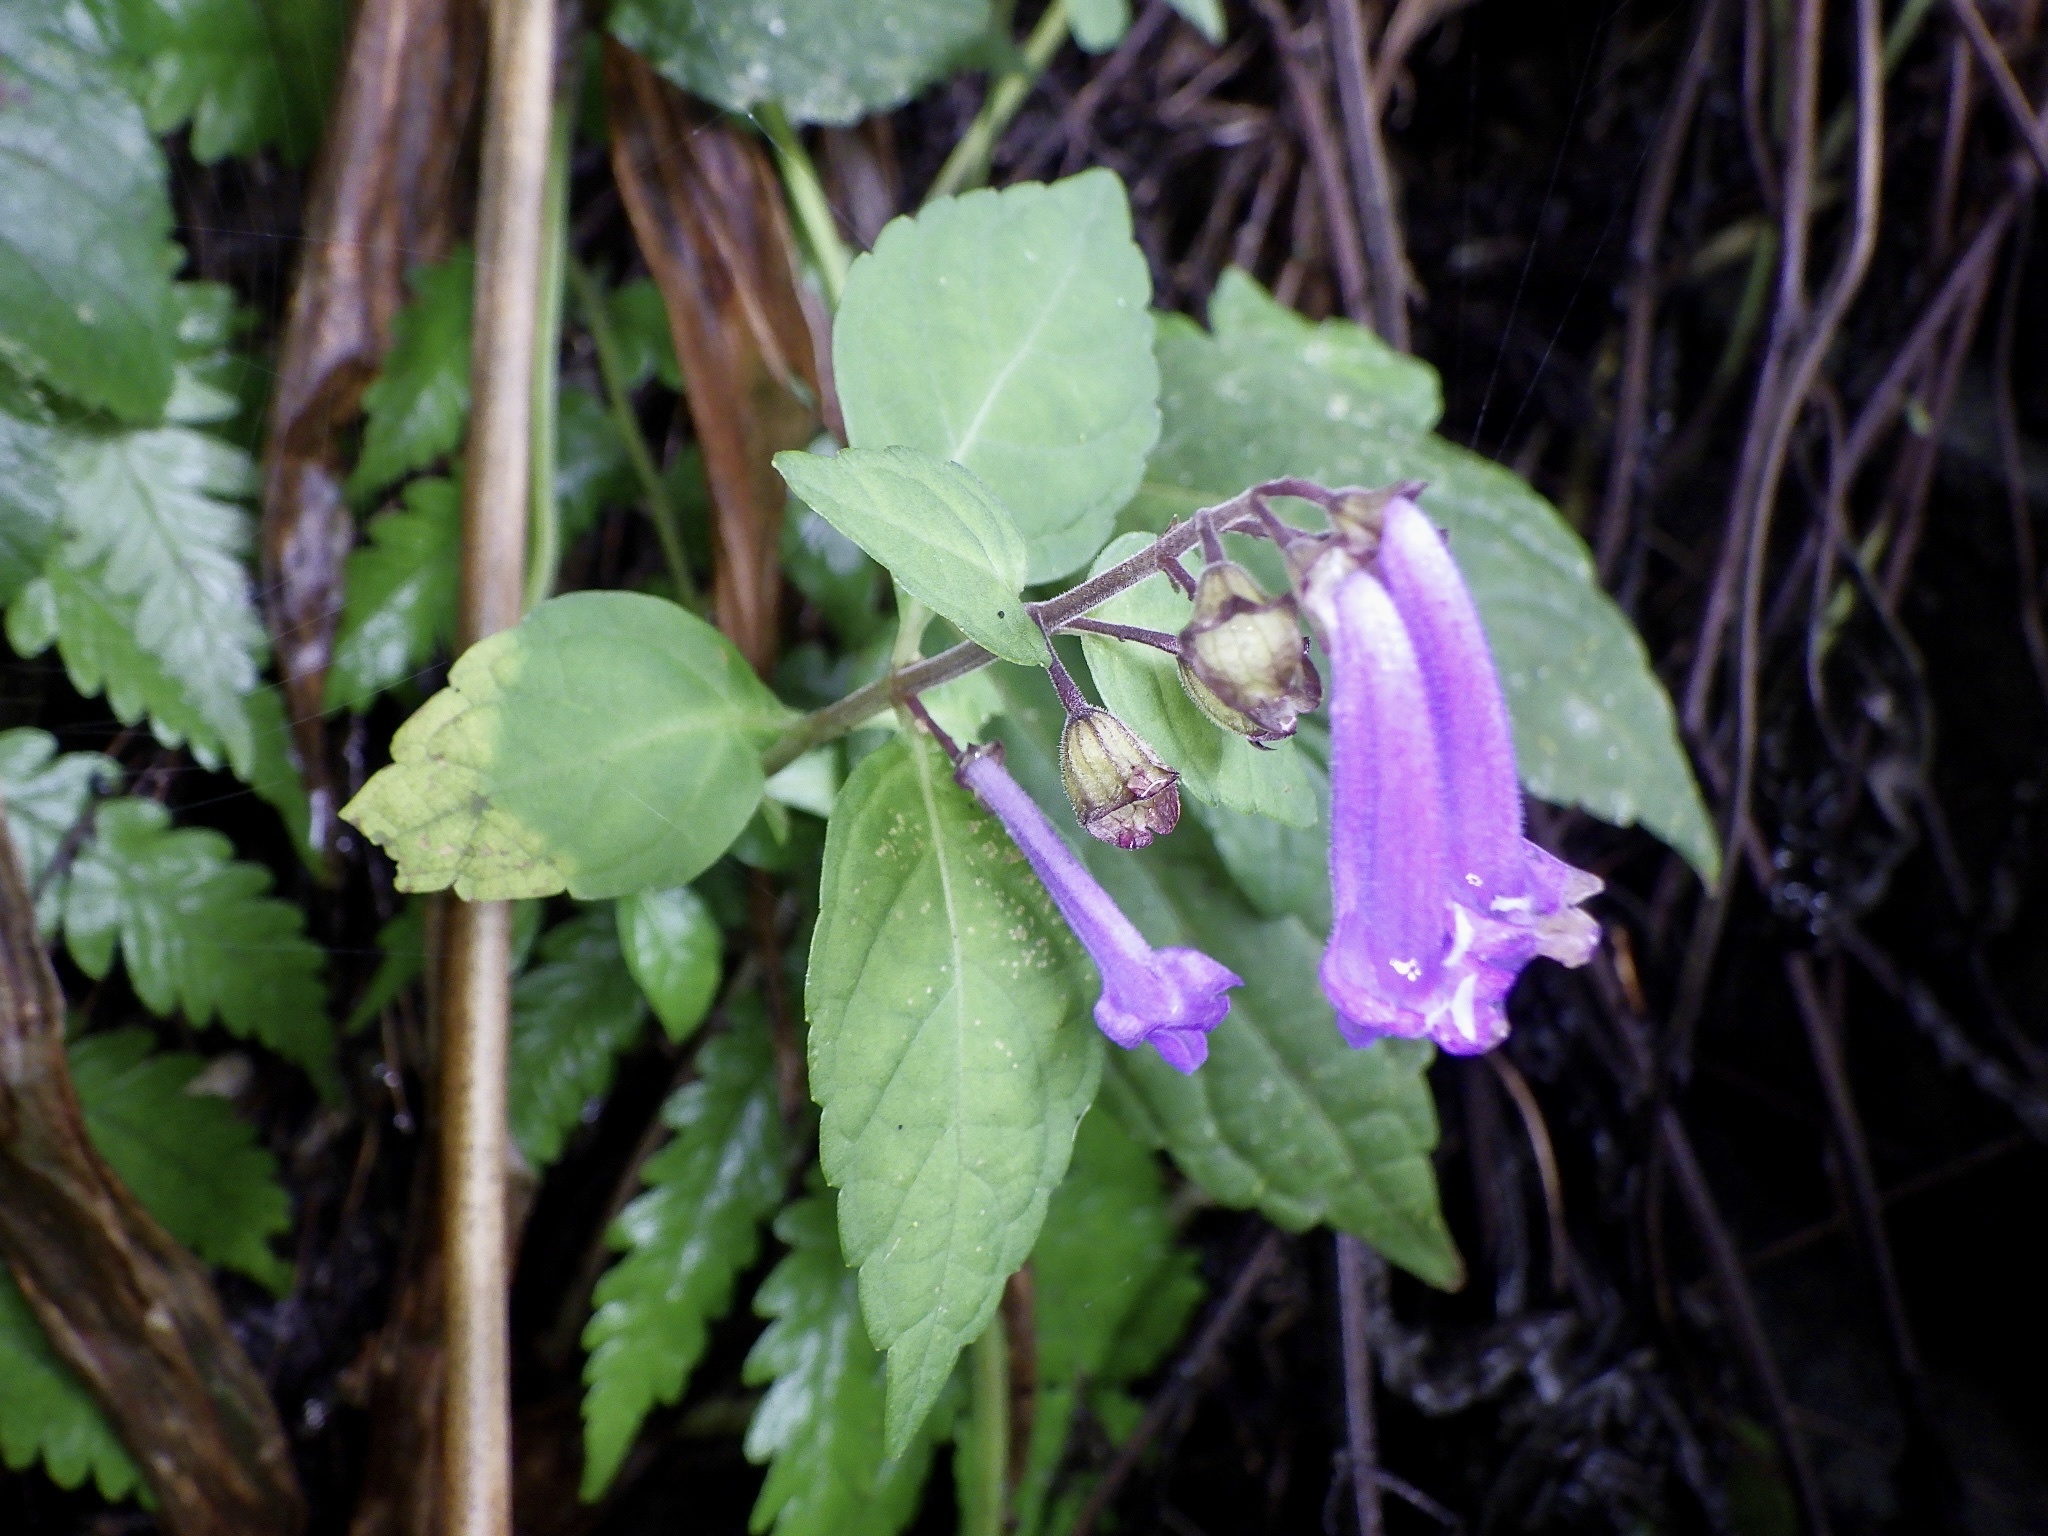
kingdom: Plantae
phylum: Tracheophyta
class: Magnoliopsida
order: Lamiales
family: Lamiaceae
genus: Isodon
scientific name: Isodon longitubus
